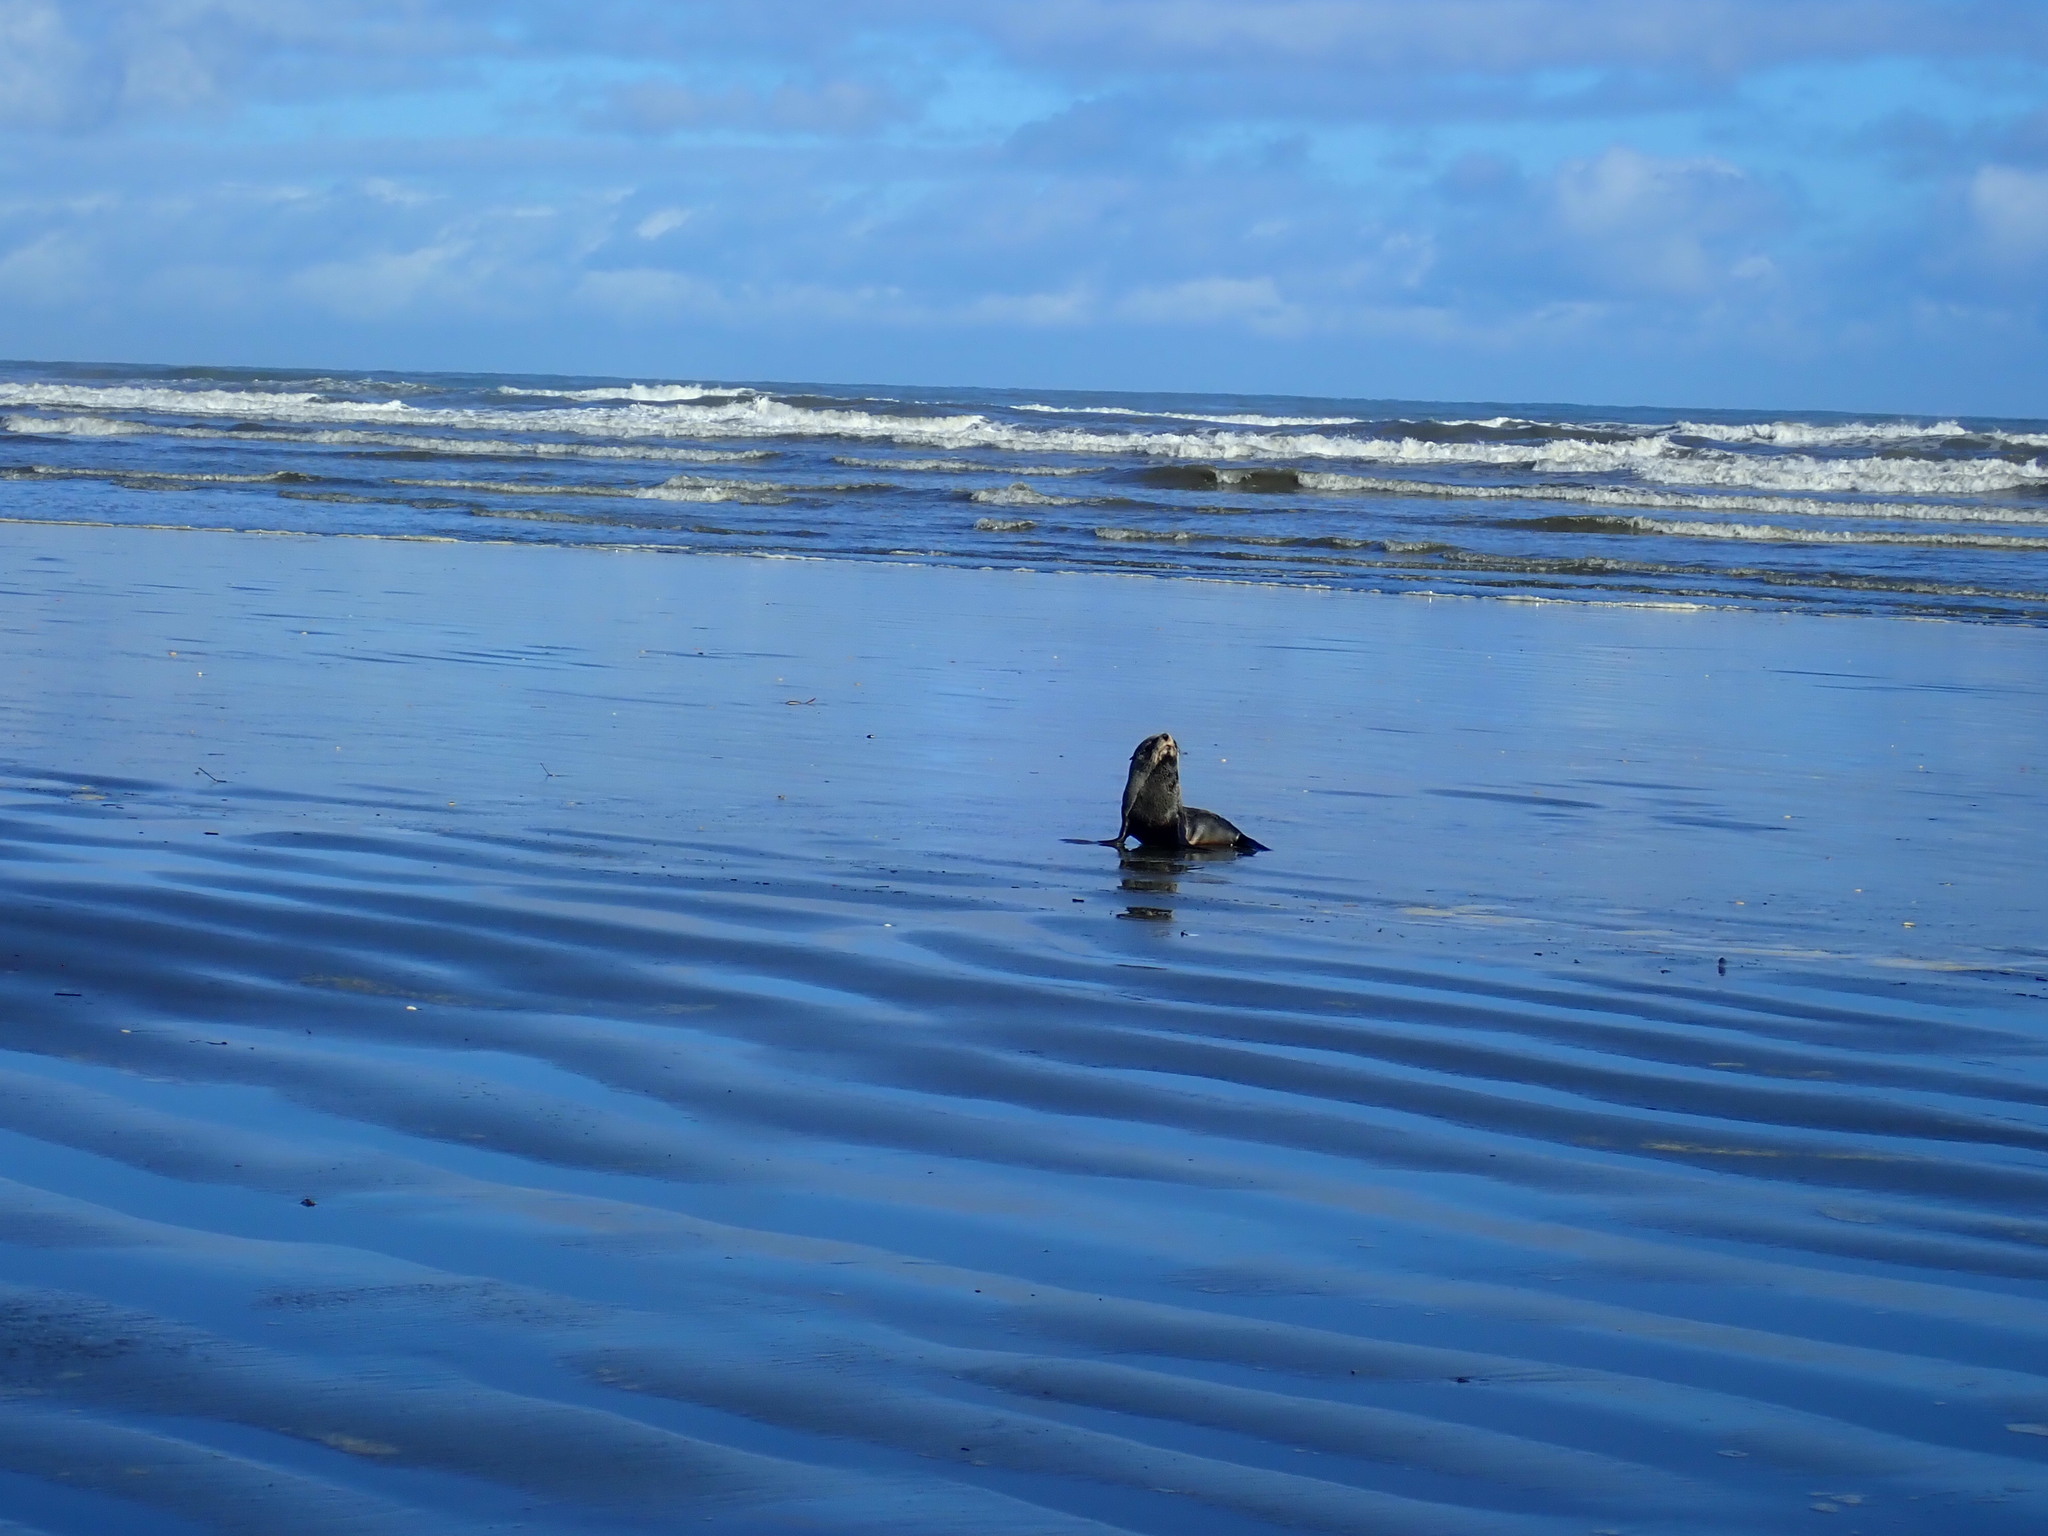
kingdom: Animalia
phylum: Chordata
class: Mammalia
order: Carnivora
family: Otariidae
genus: Arctocephalus
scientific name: Arctocephalus forsteri
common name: New zealand fur seal
